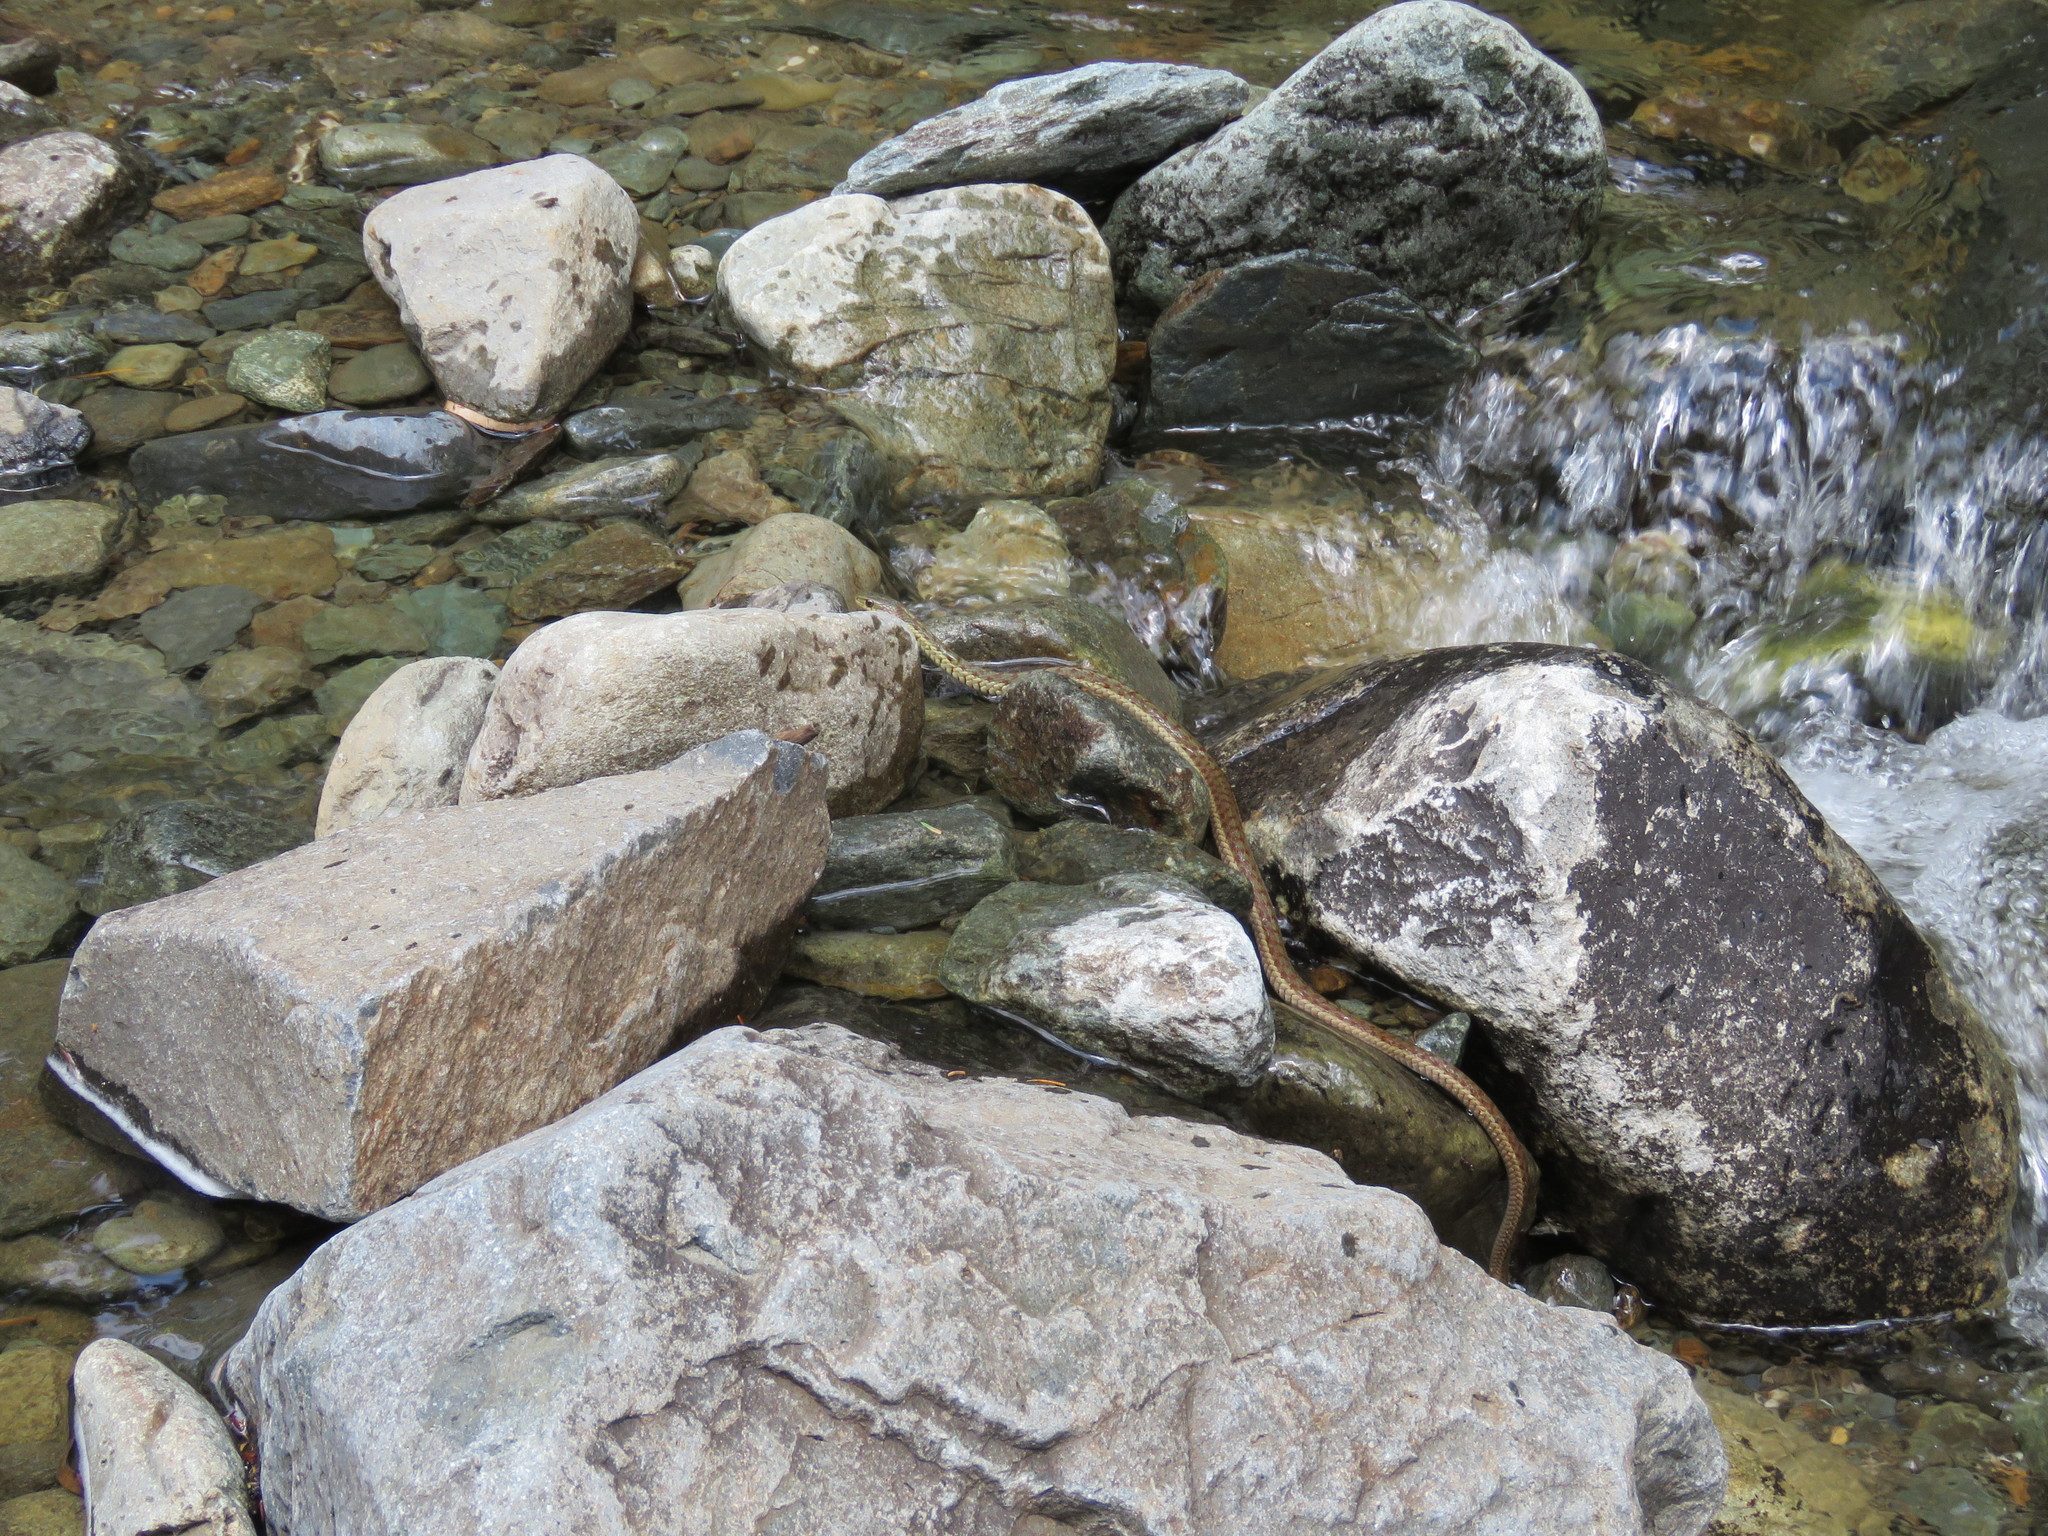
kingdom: Animalia
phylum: Chordata
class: Squamata
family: Colubridae
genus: Thamnophis
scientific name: Thamnophis sirtalis
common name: Common garter snake
